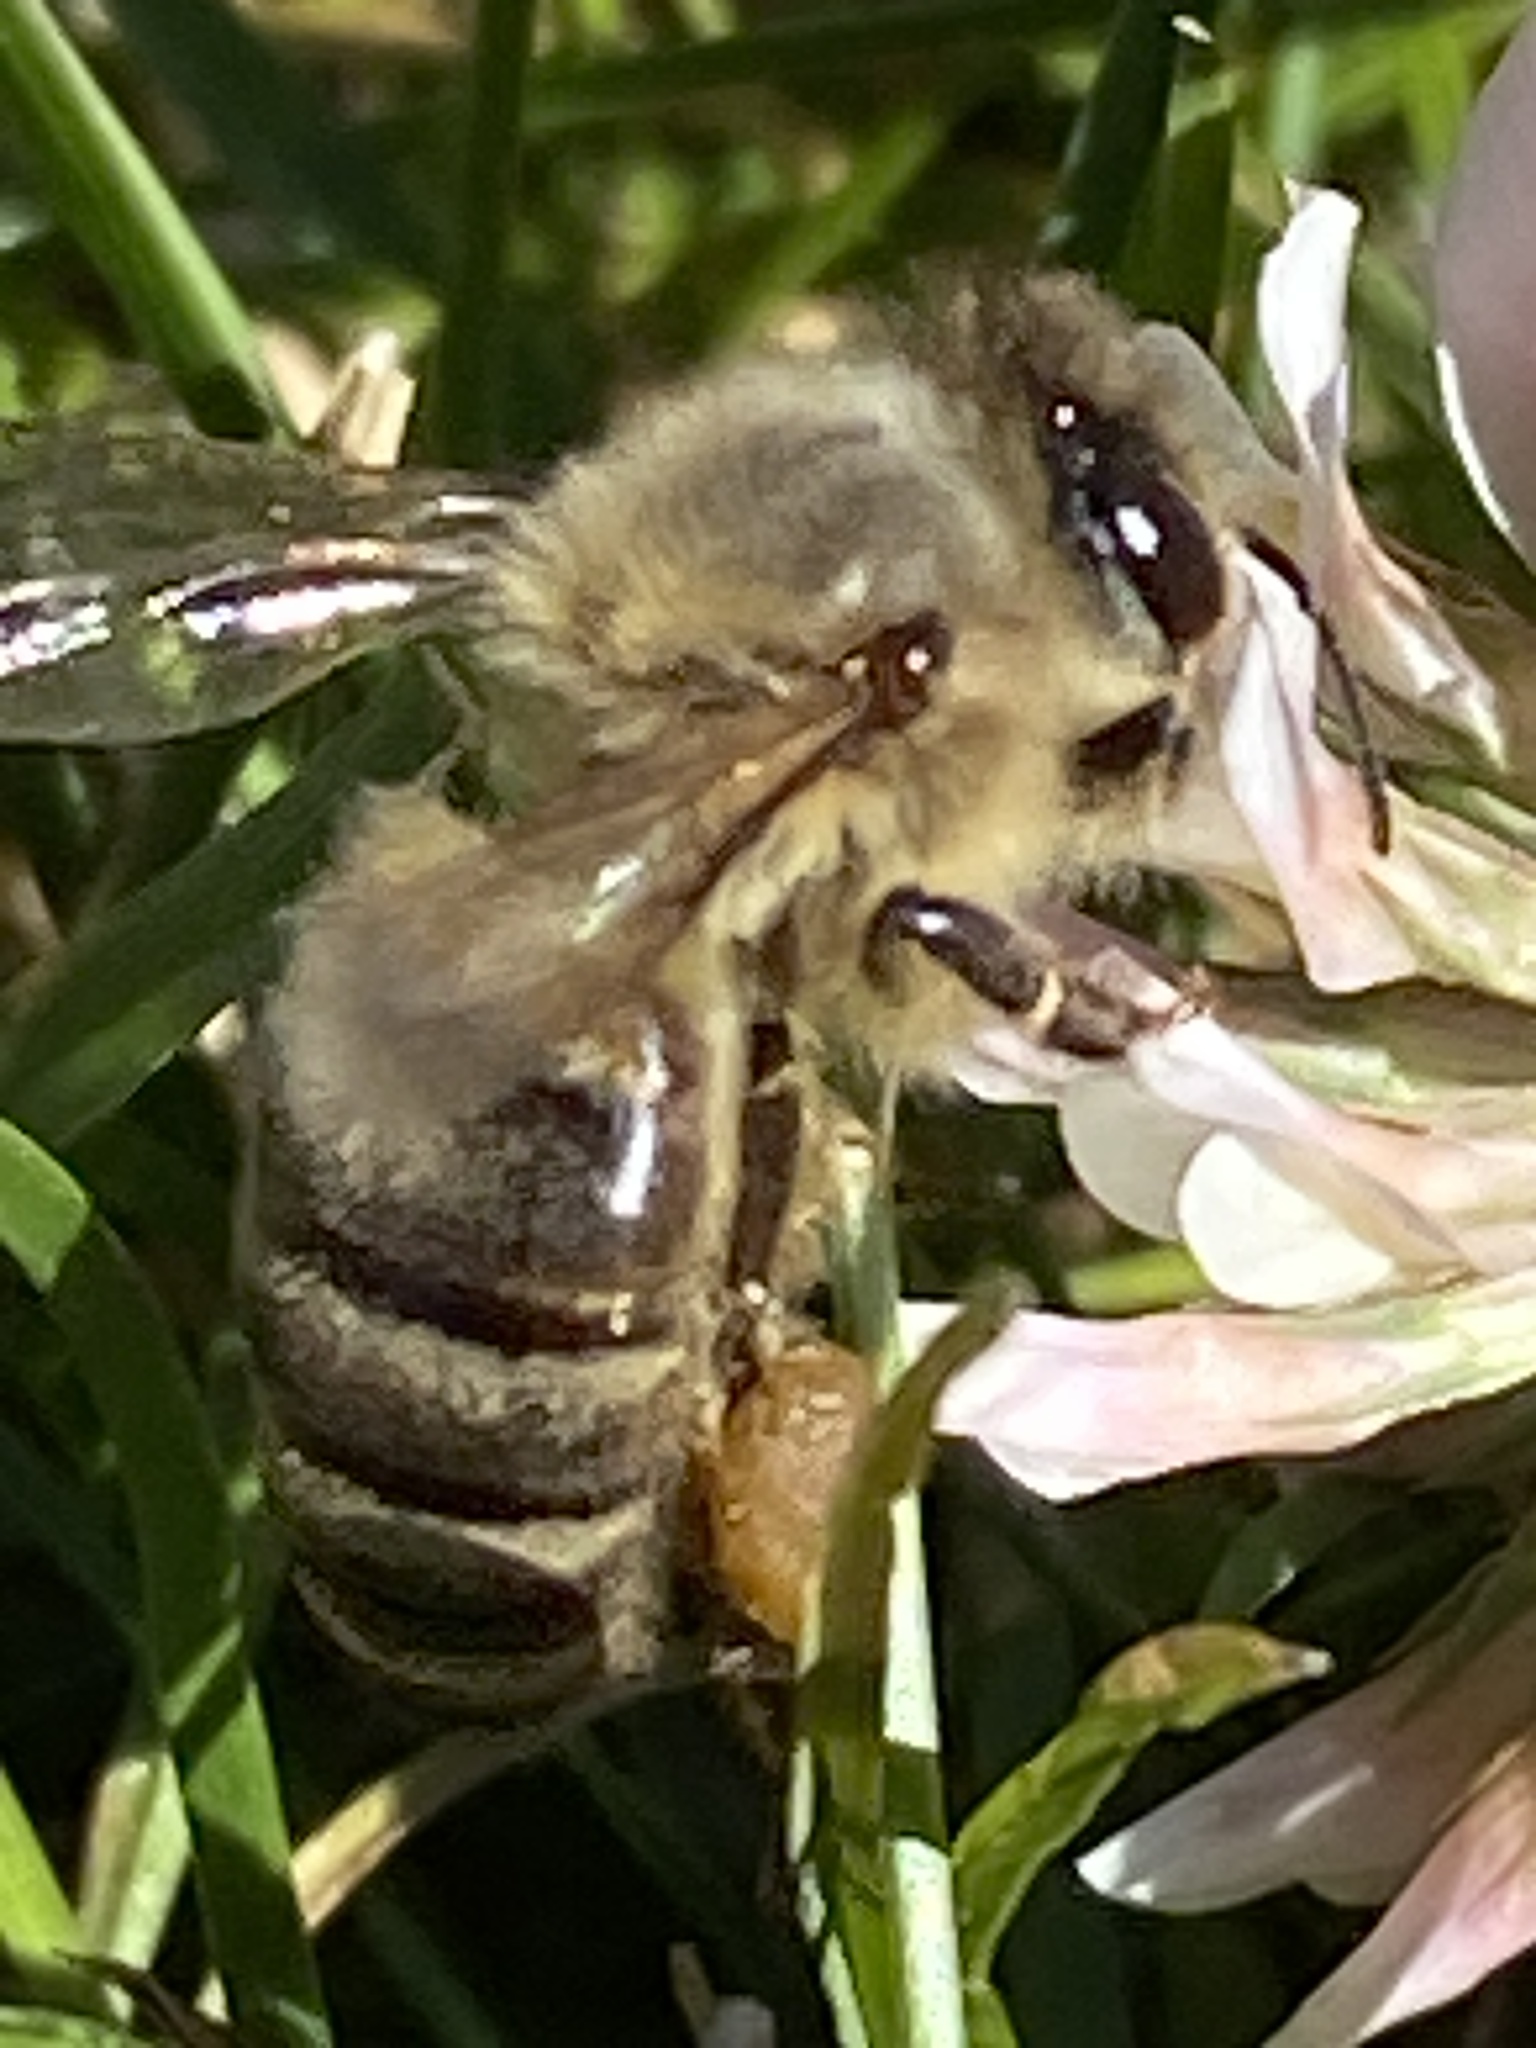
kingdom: Animalia
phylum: Arthropoda
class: Insecta
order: Hymenoptera
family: Apidae
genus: Apis
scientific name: Apis mellifera
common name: Honey bee
